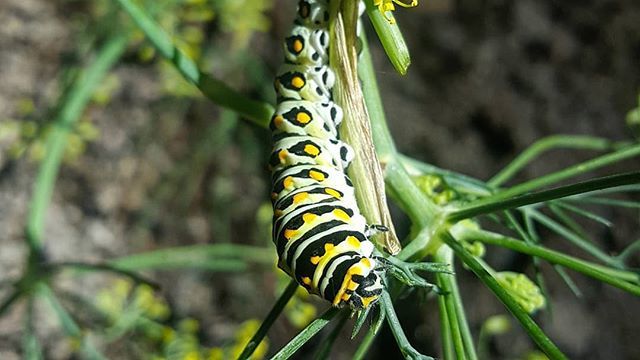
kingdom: Animalia
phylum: Arthropoda
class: Insecta
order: Lepidoptera
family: Papilionidae
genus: Papilio
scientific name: Papilio polyxenes
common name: Black swallowtail
